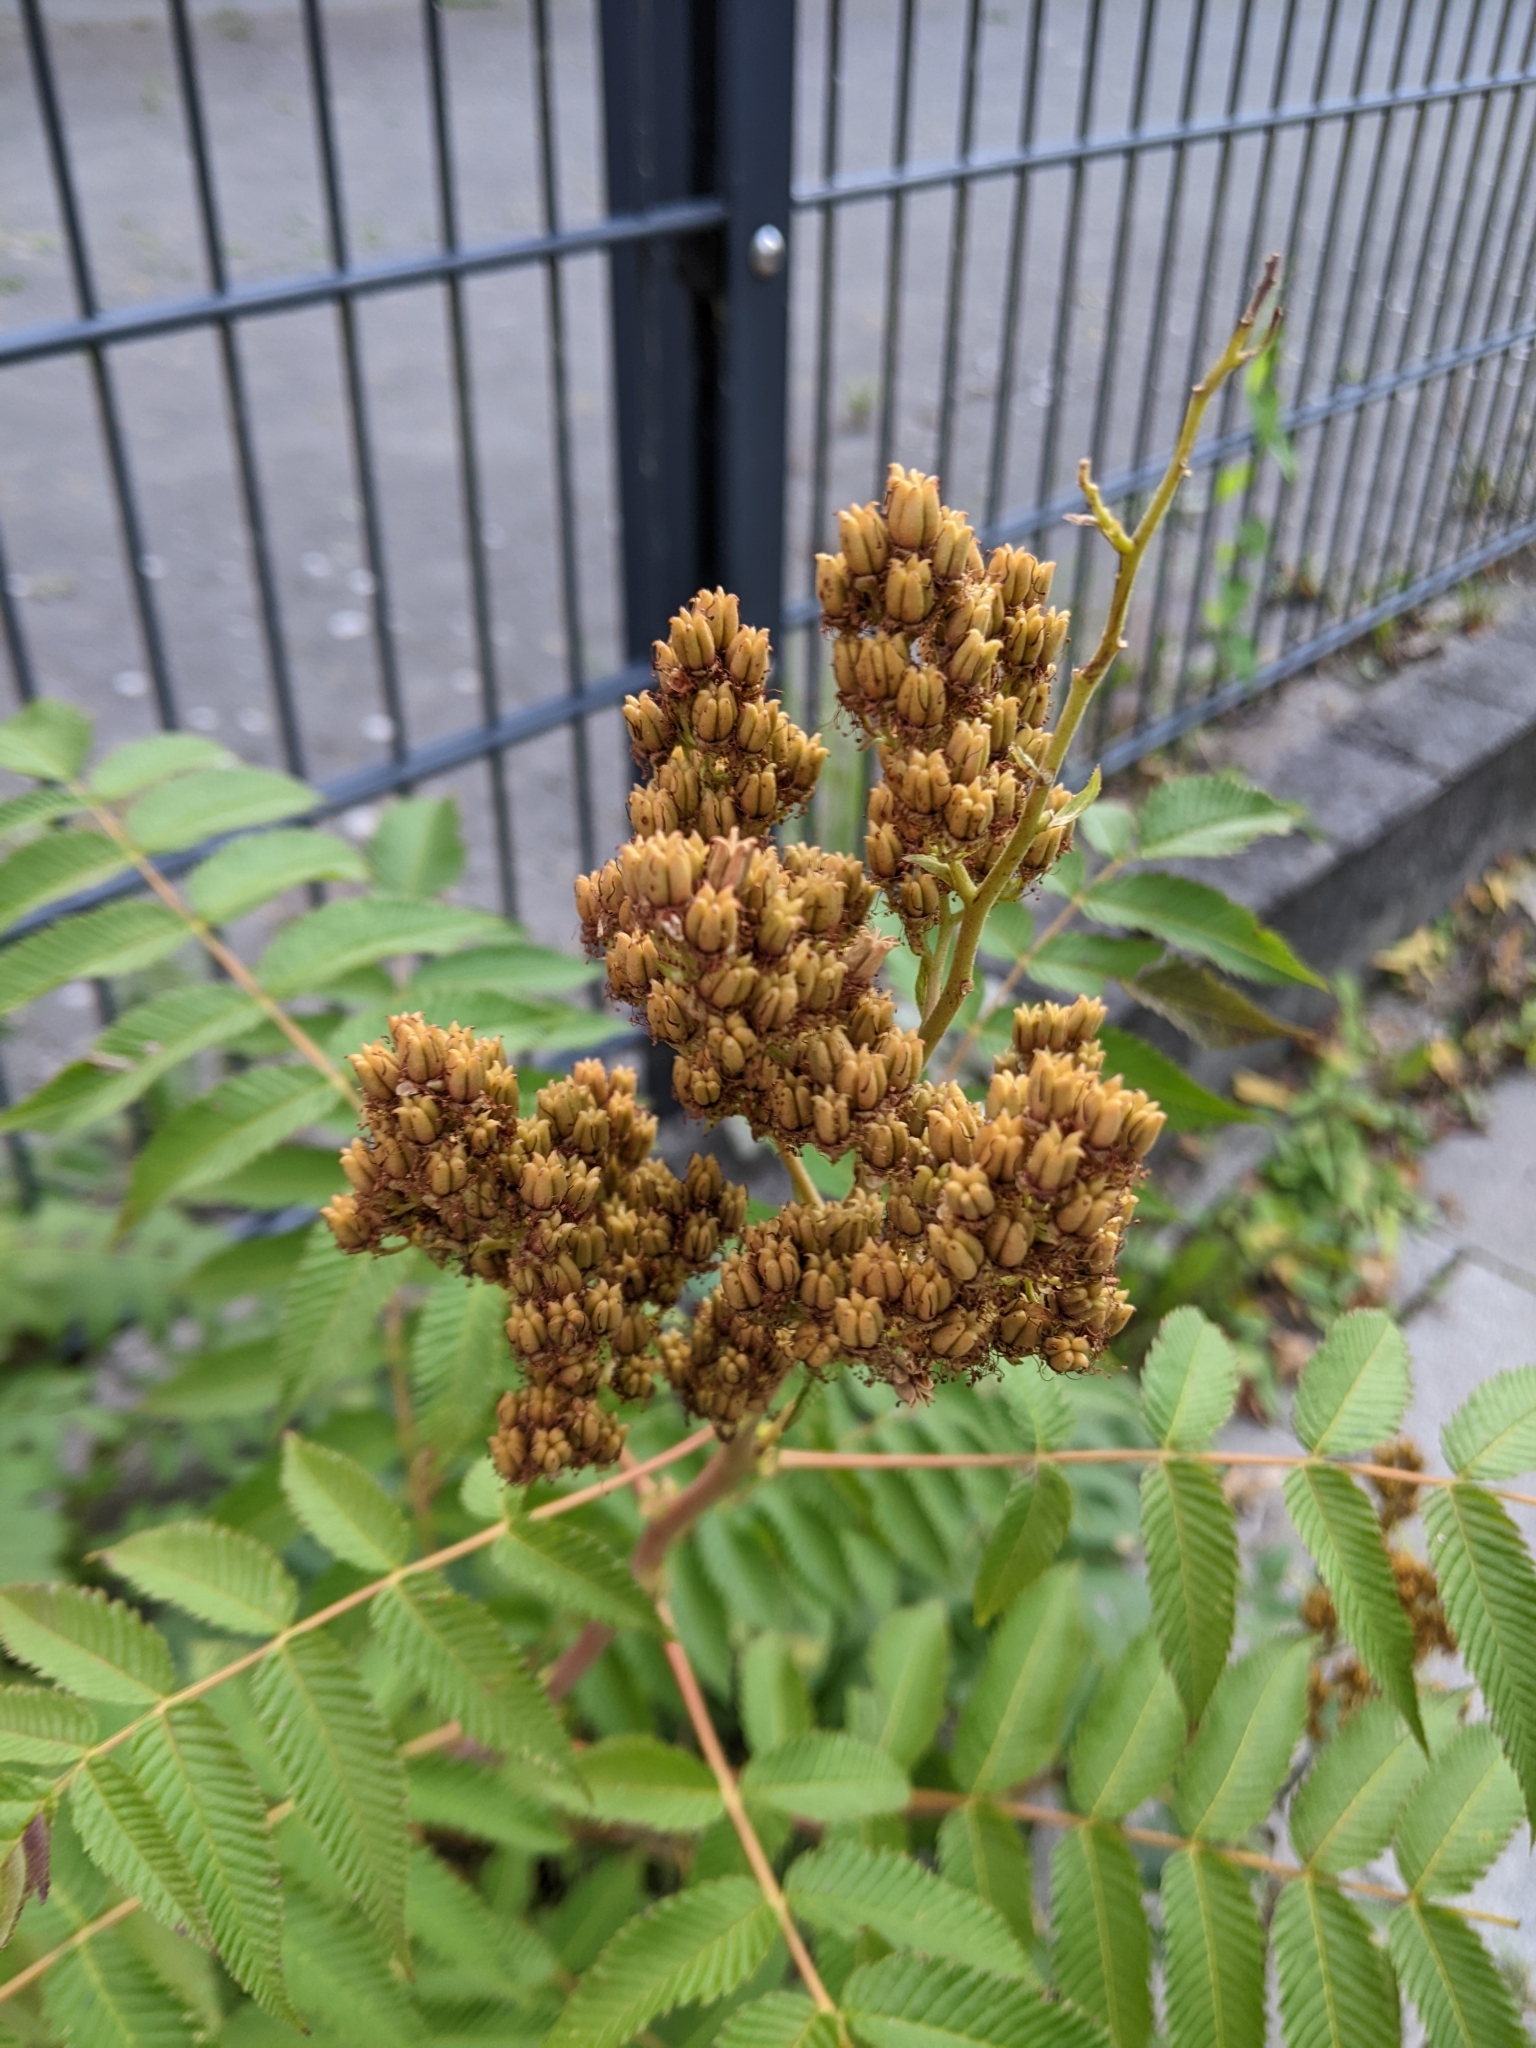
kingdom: Plantae
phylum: Tracheophyta
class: Magnoliopsida
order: Rosales
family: Rosaceae
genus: Sorbaria
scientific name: Sorbaria sorbifolia
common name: False spiraea
